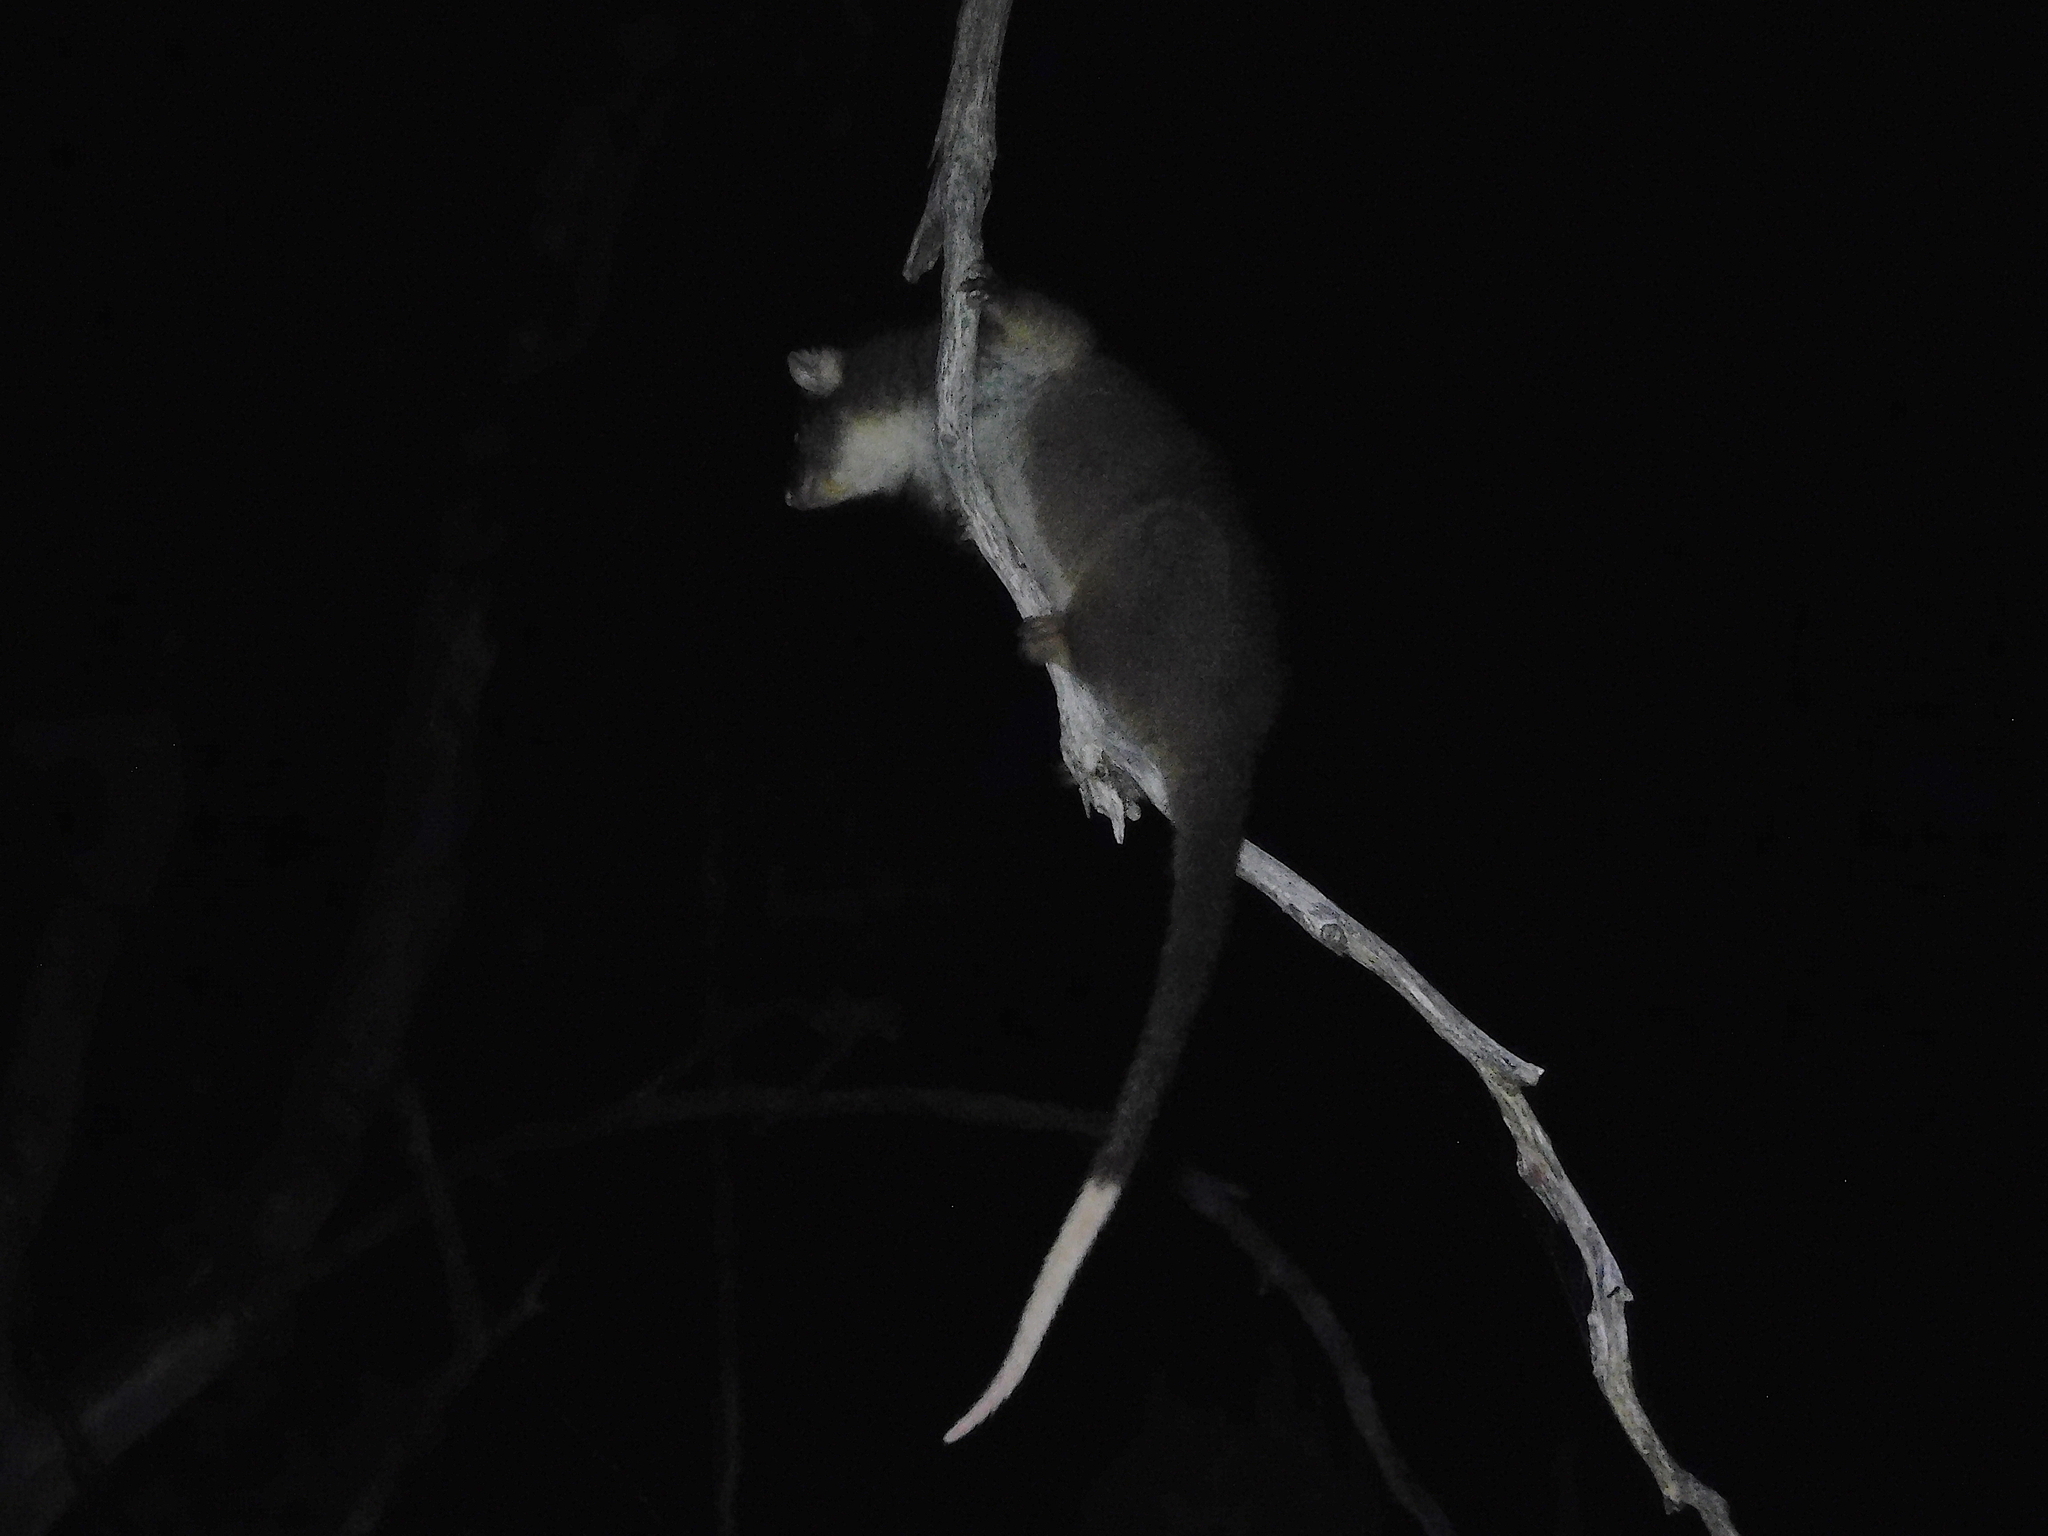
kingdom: Animalia
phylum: Chordata
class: Mammalia
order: Diprotodontia
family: Pseudocheiridae
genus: Pseudocheirus
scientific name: Pseudocheirus peregrinus
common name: Common ringtail possum
